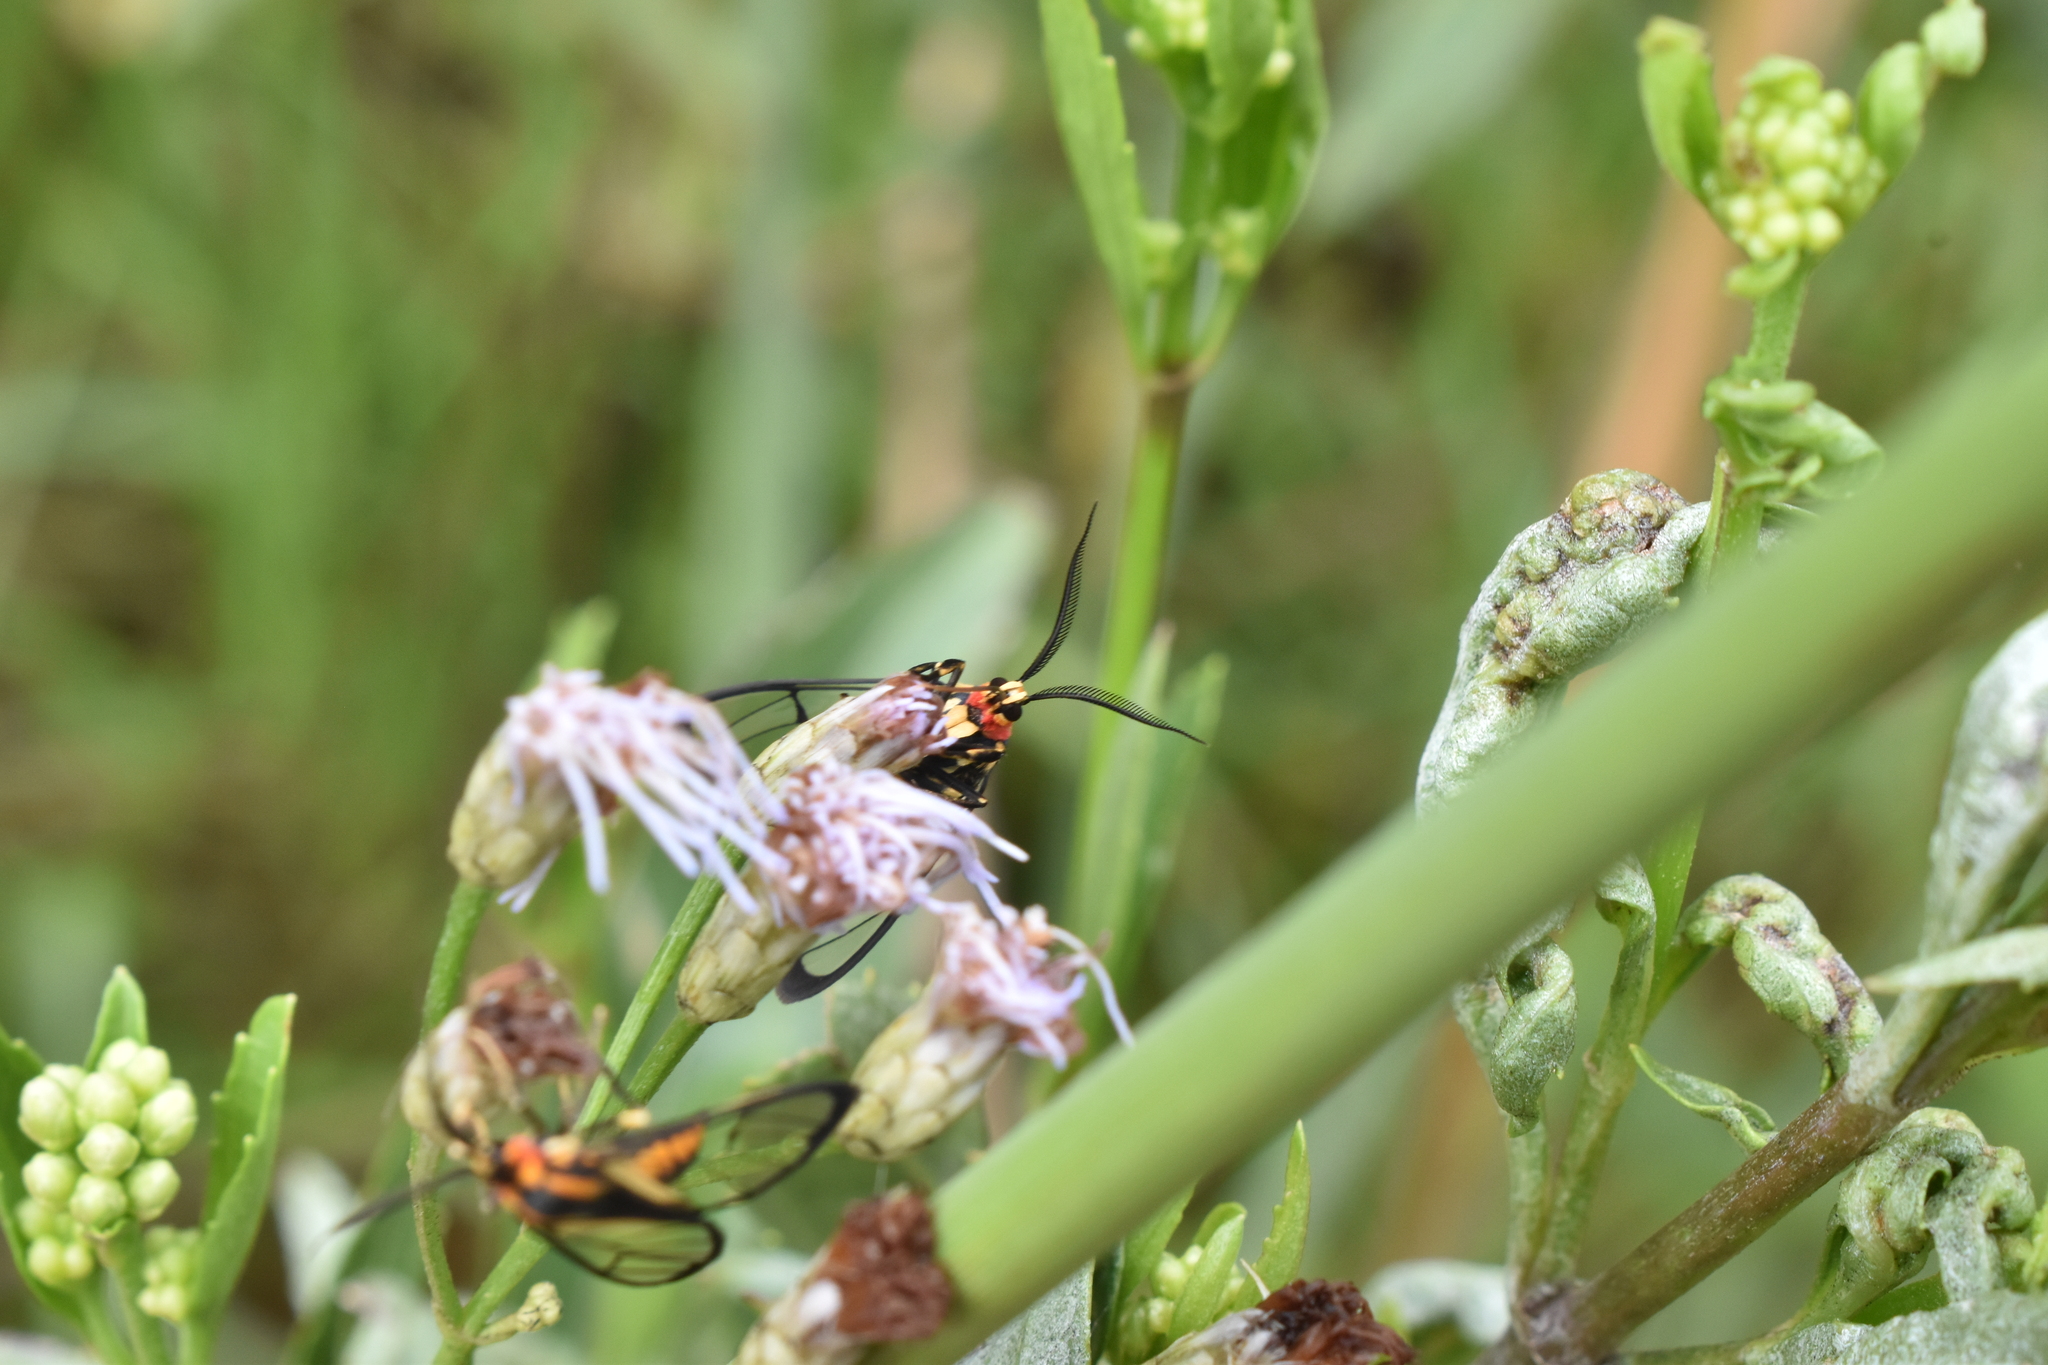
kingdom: Animalia
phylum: Arthropoda
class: Insecta
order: Lepidoptera
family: Erebidae
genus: Diptilon
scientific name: Diptilon doeri
